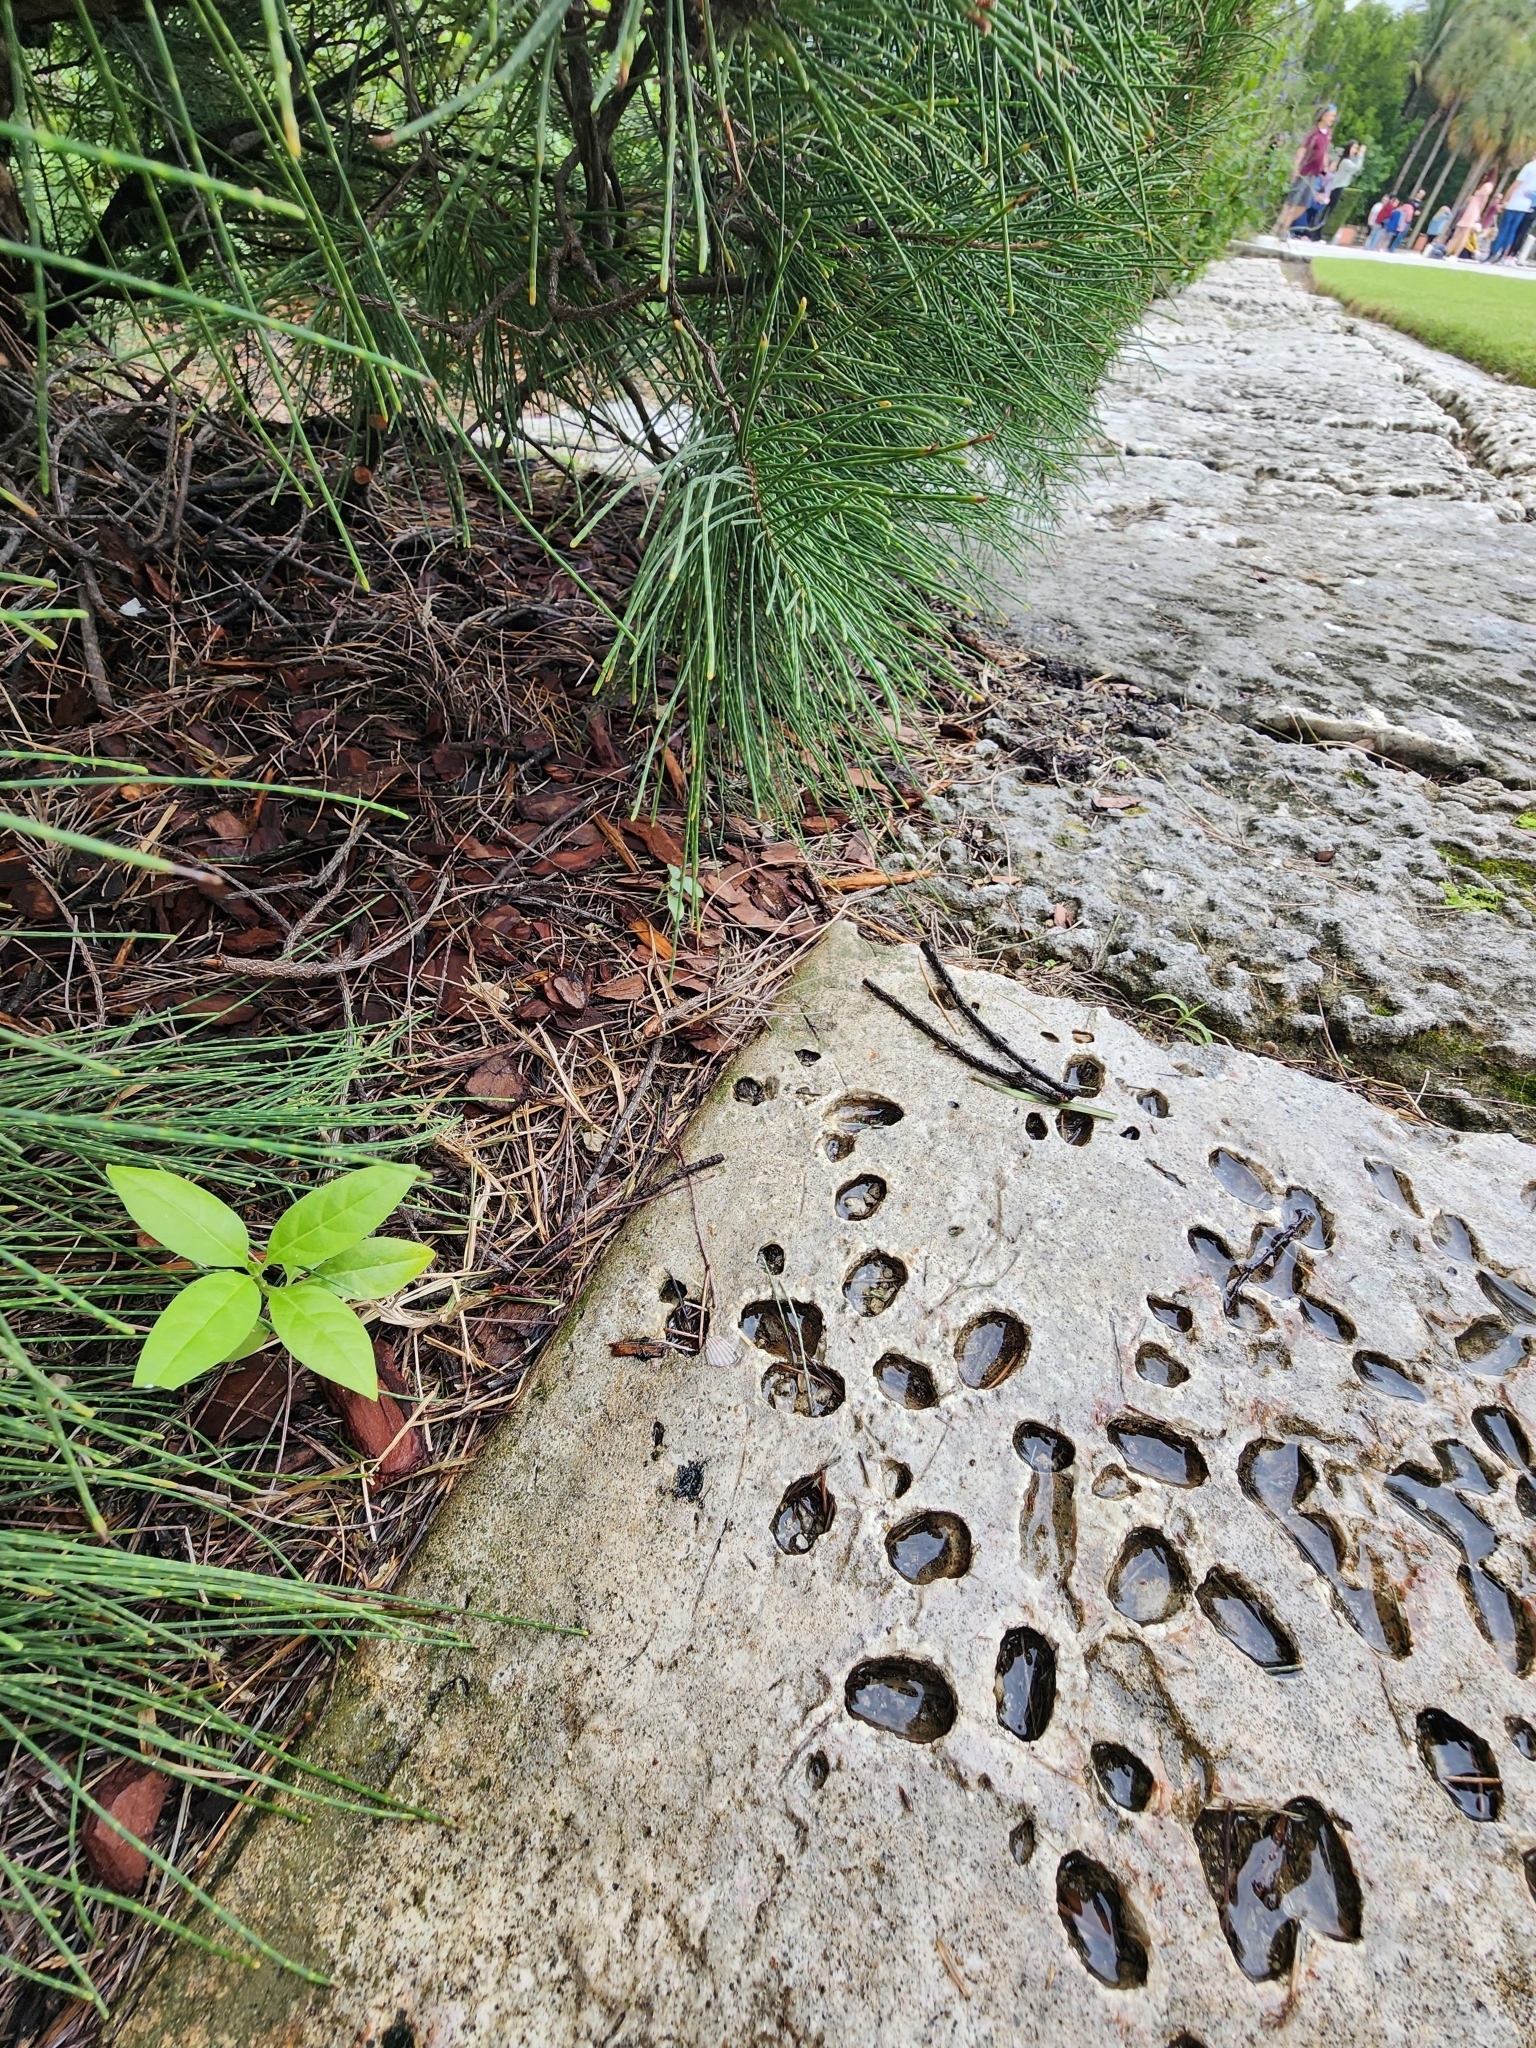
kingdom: Plantae
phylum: Tracheophyta
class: Magnoliopsida
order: Gentianales
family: Apocynaceae
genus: Asclepias
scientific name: Asclepias curassavica
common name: Bloodflower
